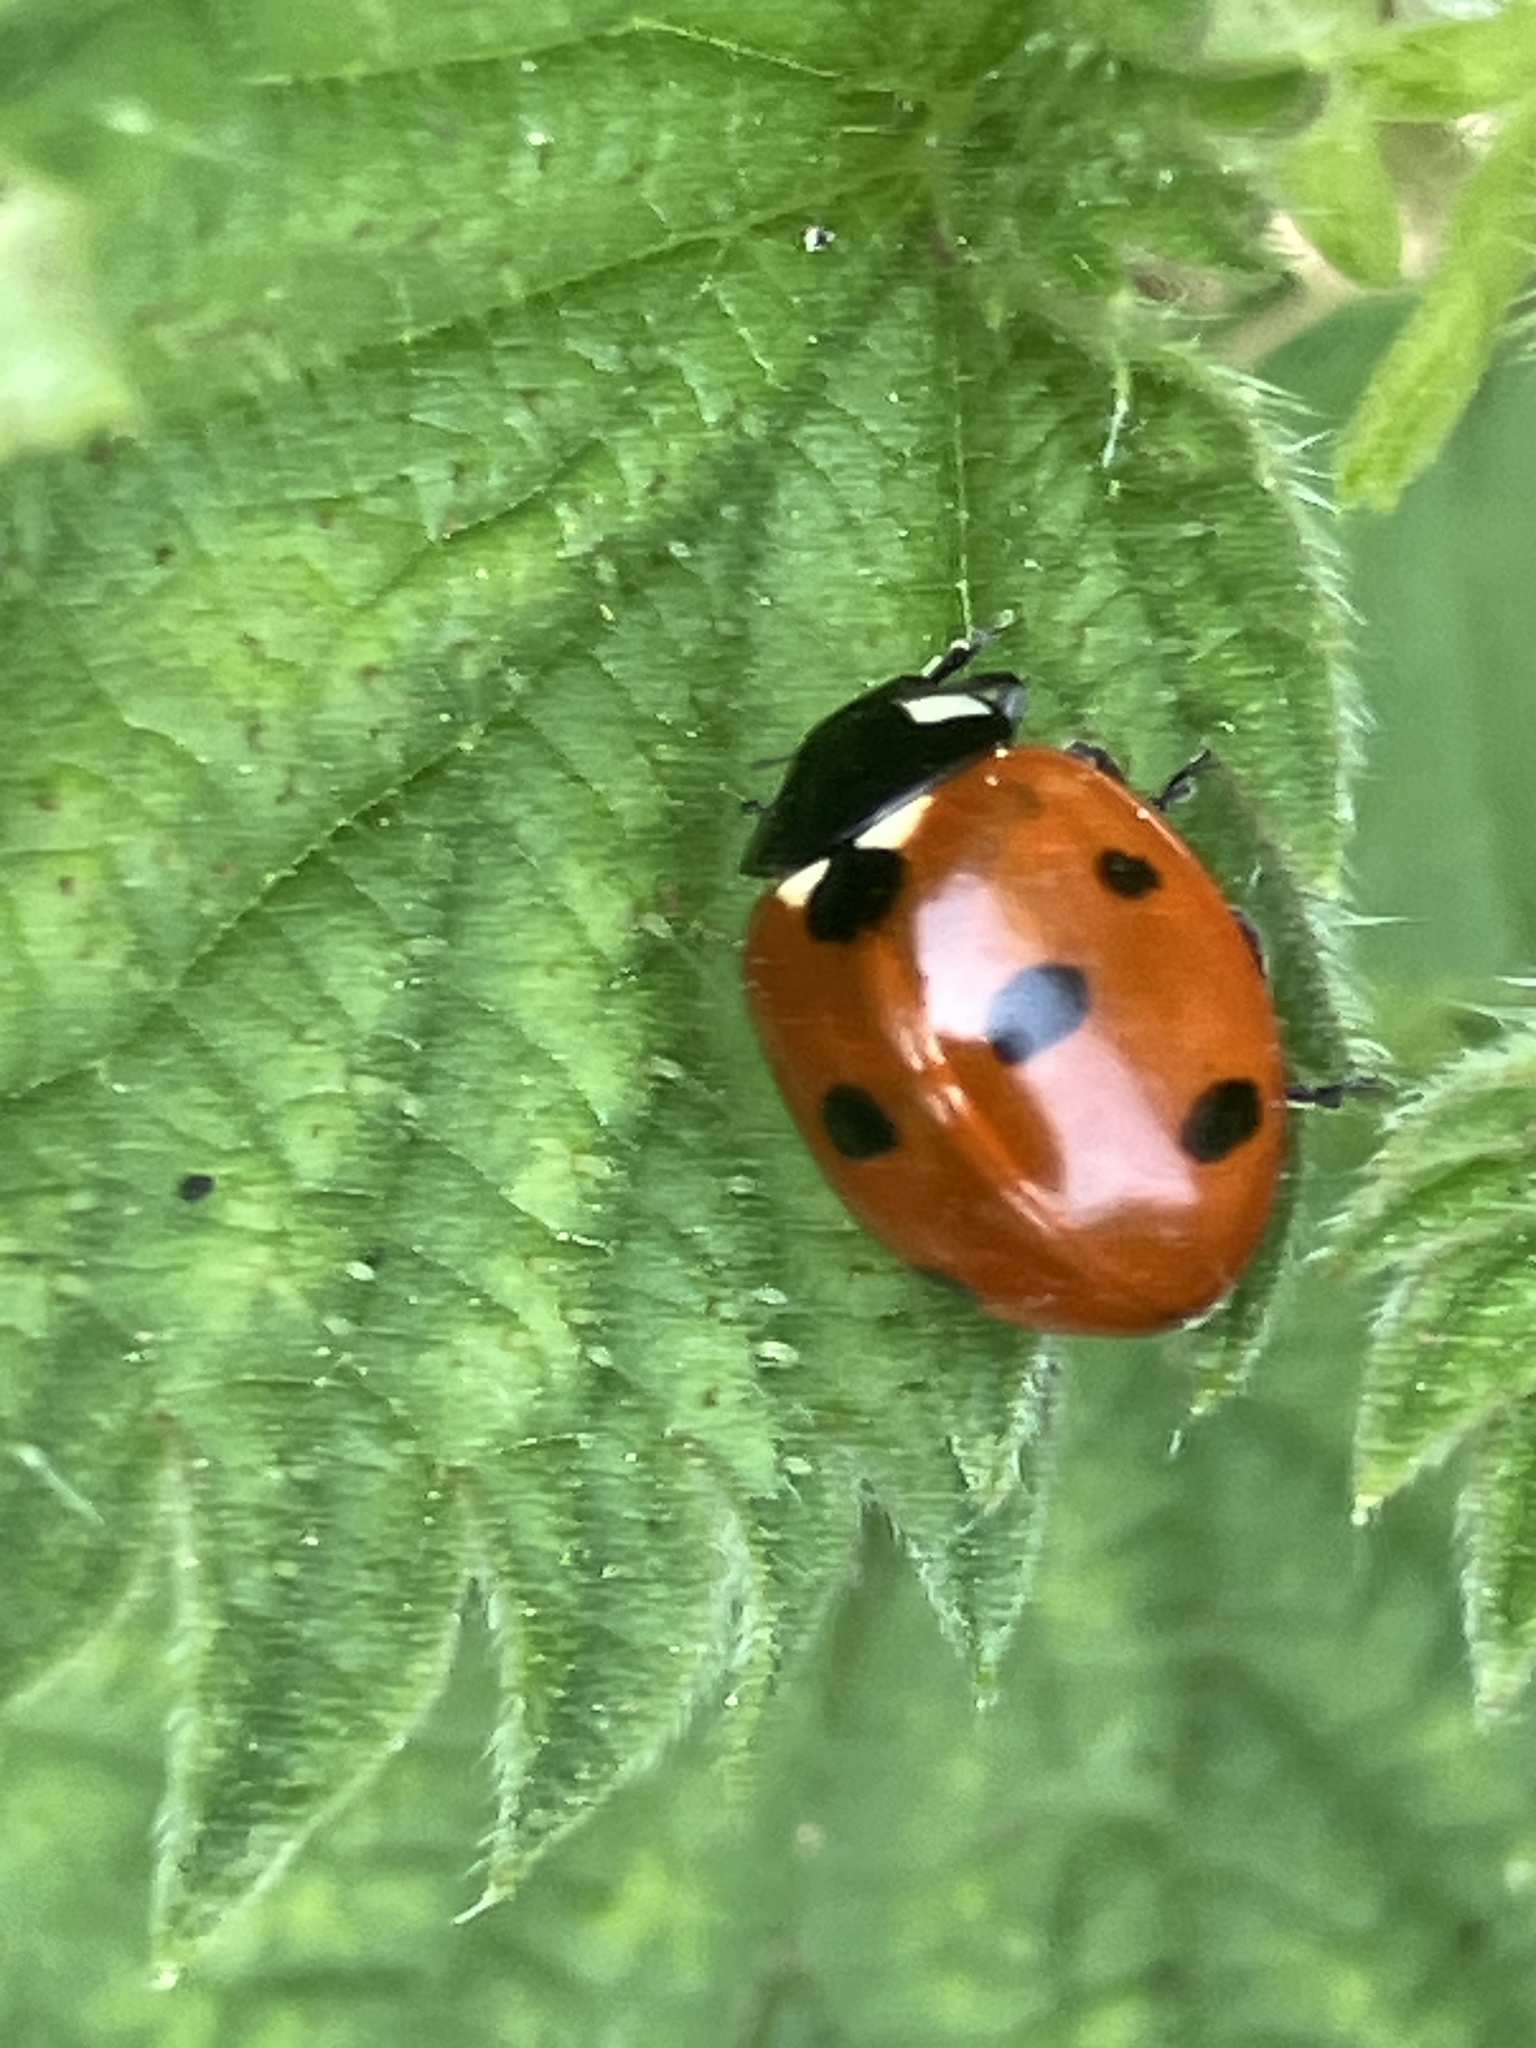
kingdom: Animalia
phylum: Arthropoda
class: Insecta
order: Coleoptera
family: Coccinellidae
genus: Coccinella
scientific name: Coccinella septempunctata
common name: Sevenspotted lady beetle
